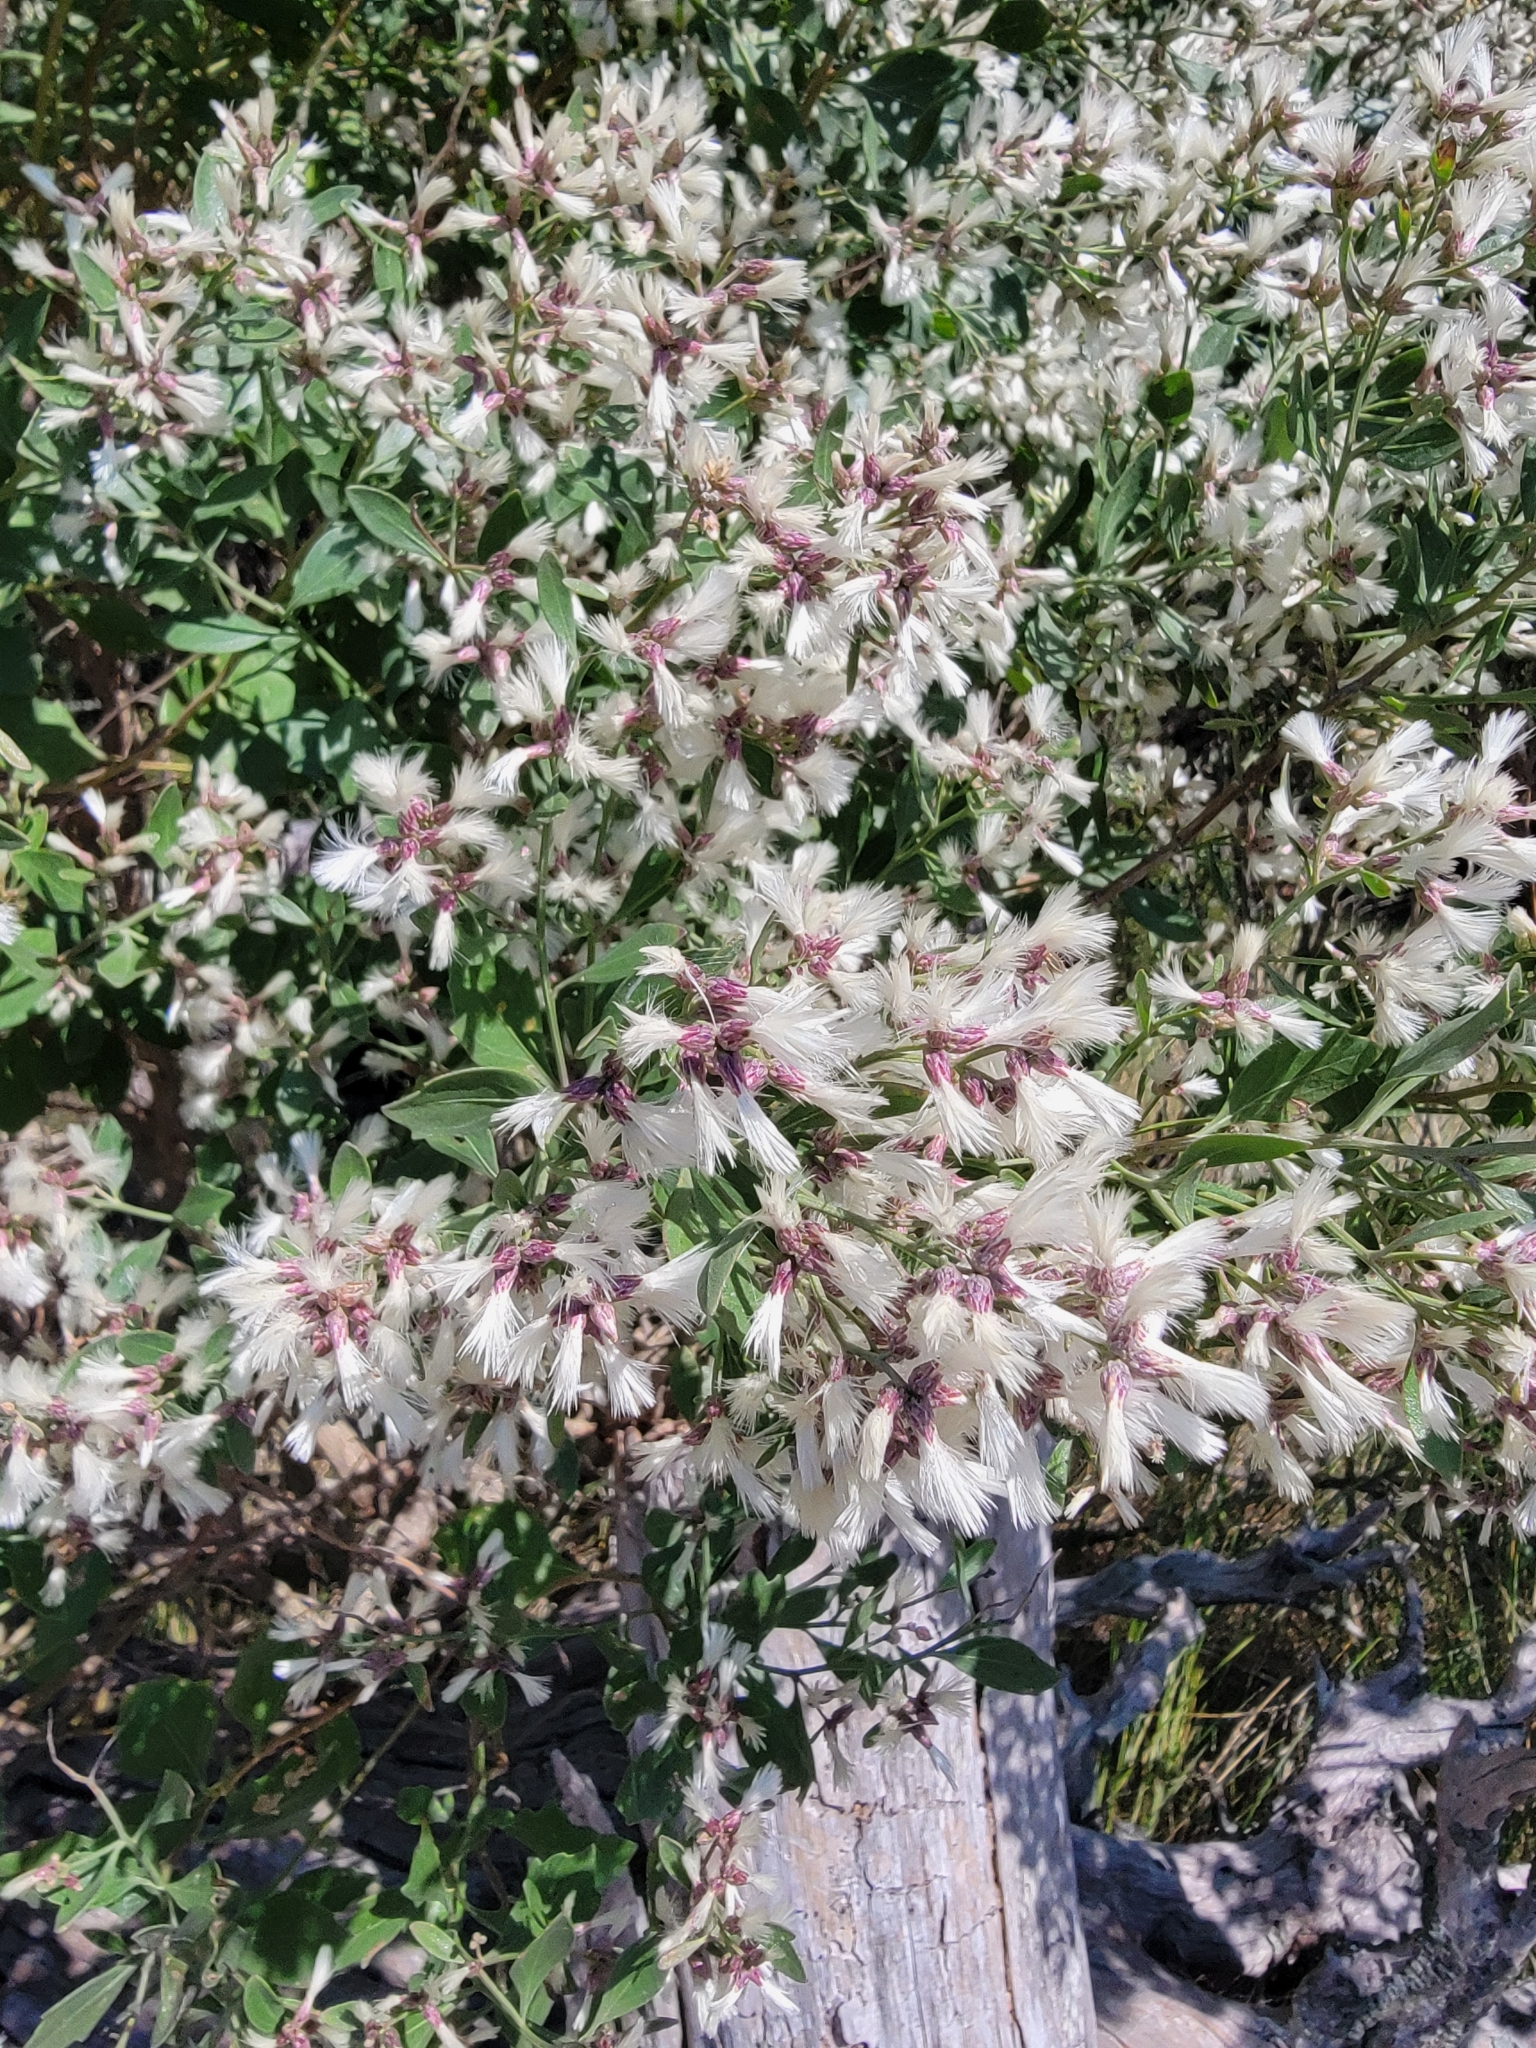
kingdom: Plantae
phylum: Tracheophyta
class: Magnoliopsida
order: Asterales
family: Asteraceae
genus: Baccharis
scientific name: Baccharis halimifolia
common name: Eastern baccharis
